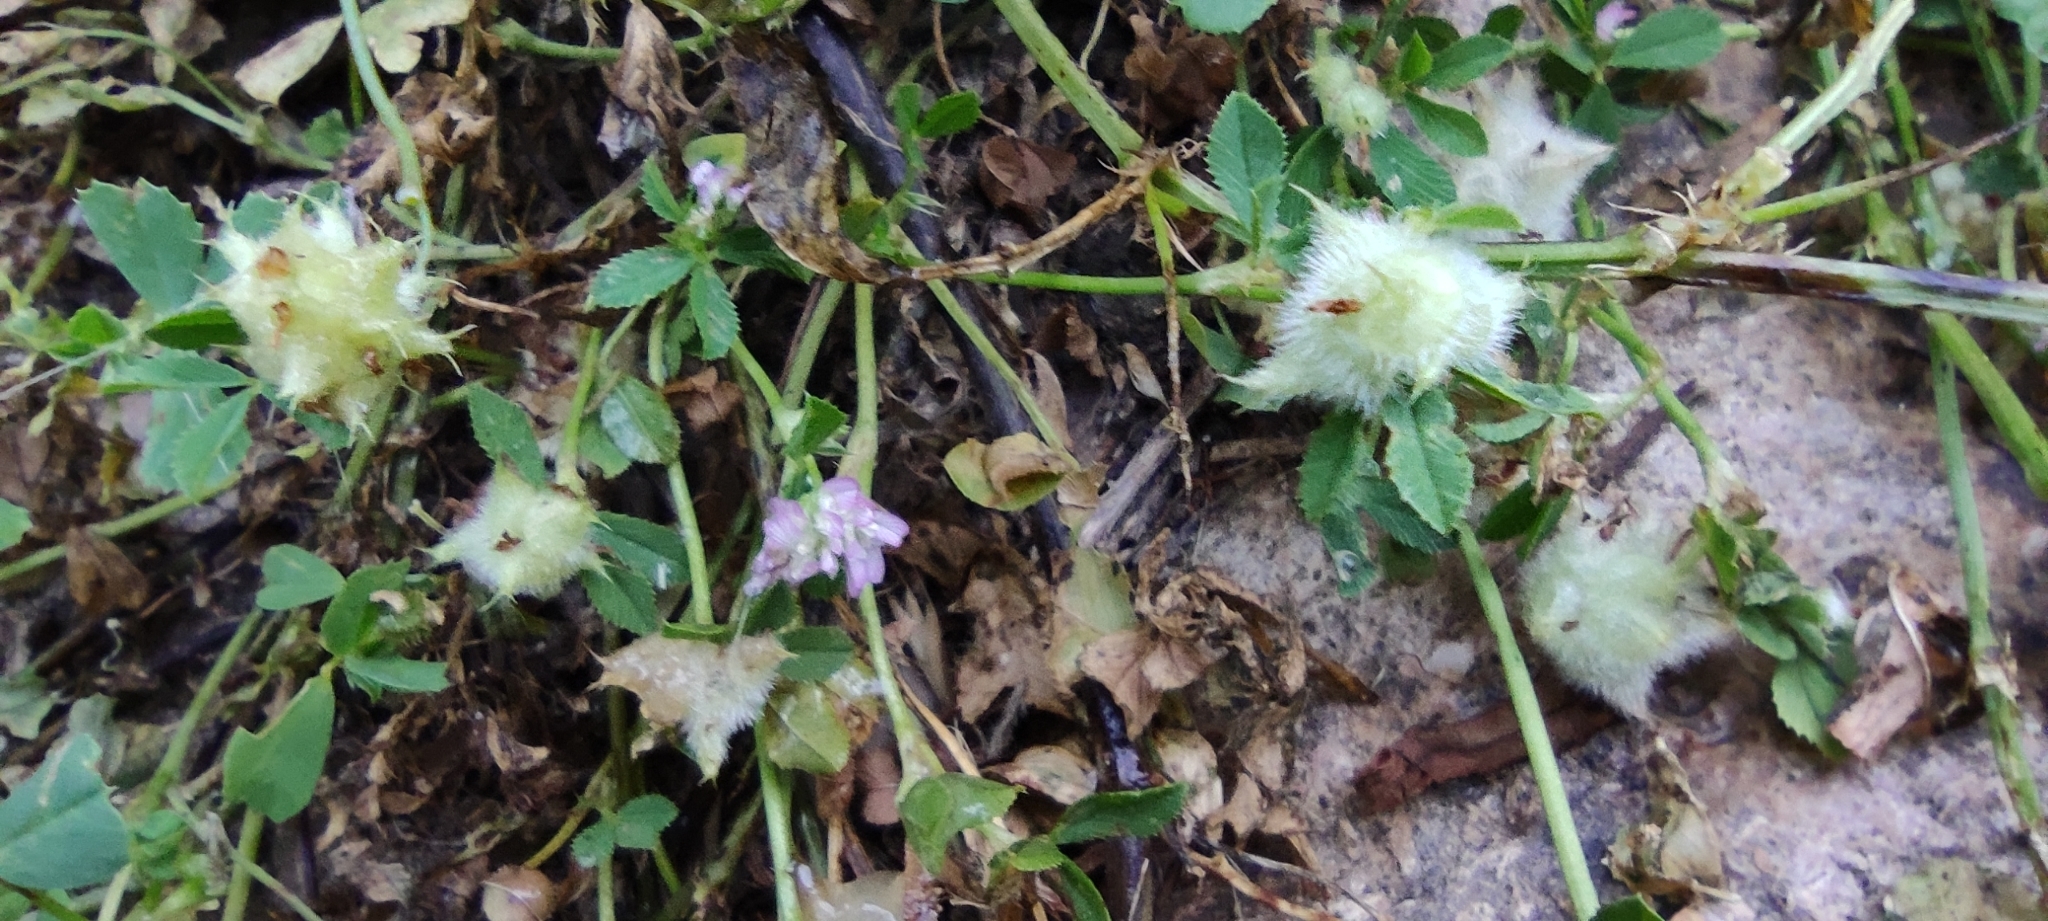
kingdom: Plantae
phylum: Tracheophyta
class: Magnoliopsida
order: Fabales
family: Fabaceae
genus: Trifolium
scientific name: Trifolium resupinatum
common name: Reversed clover
